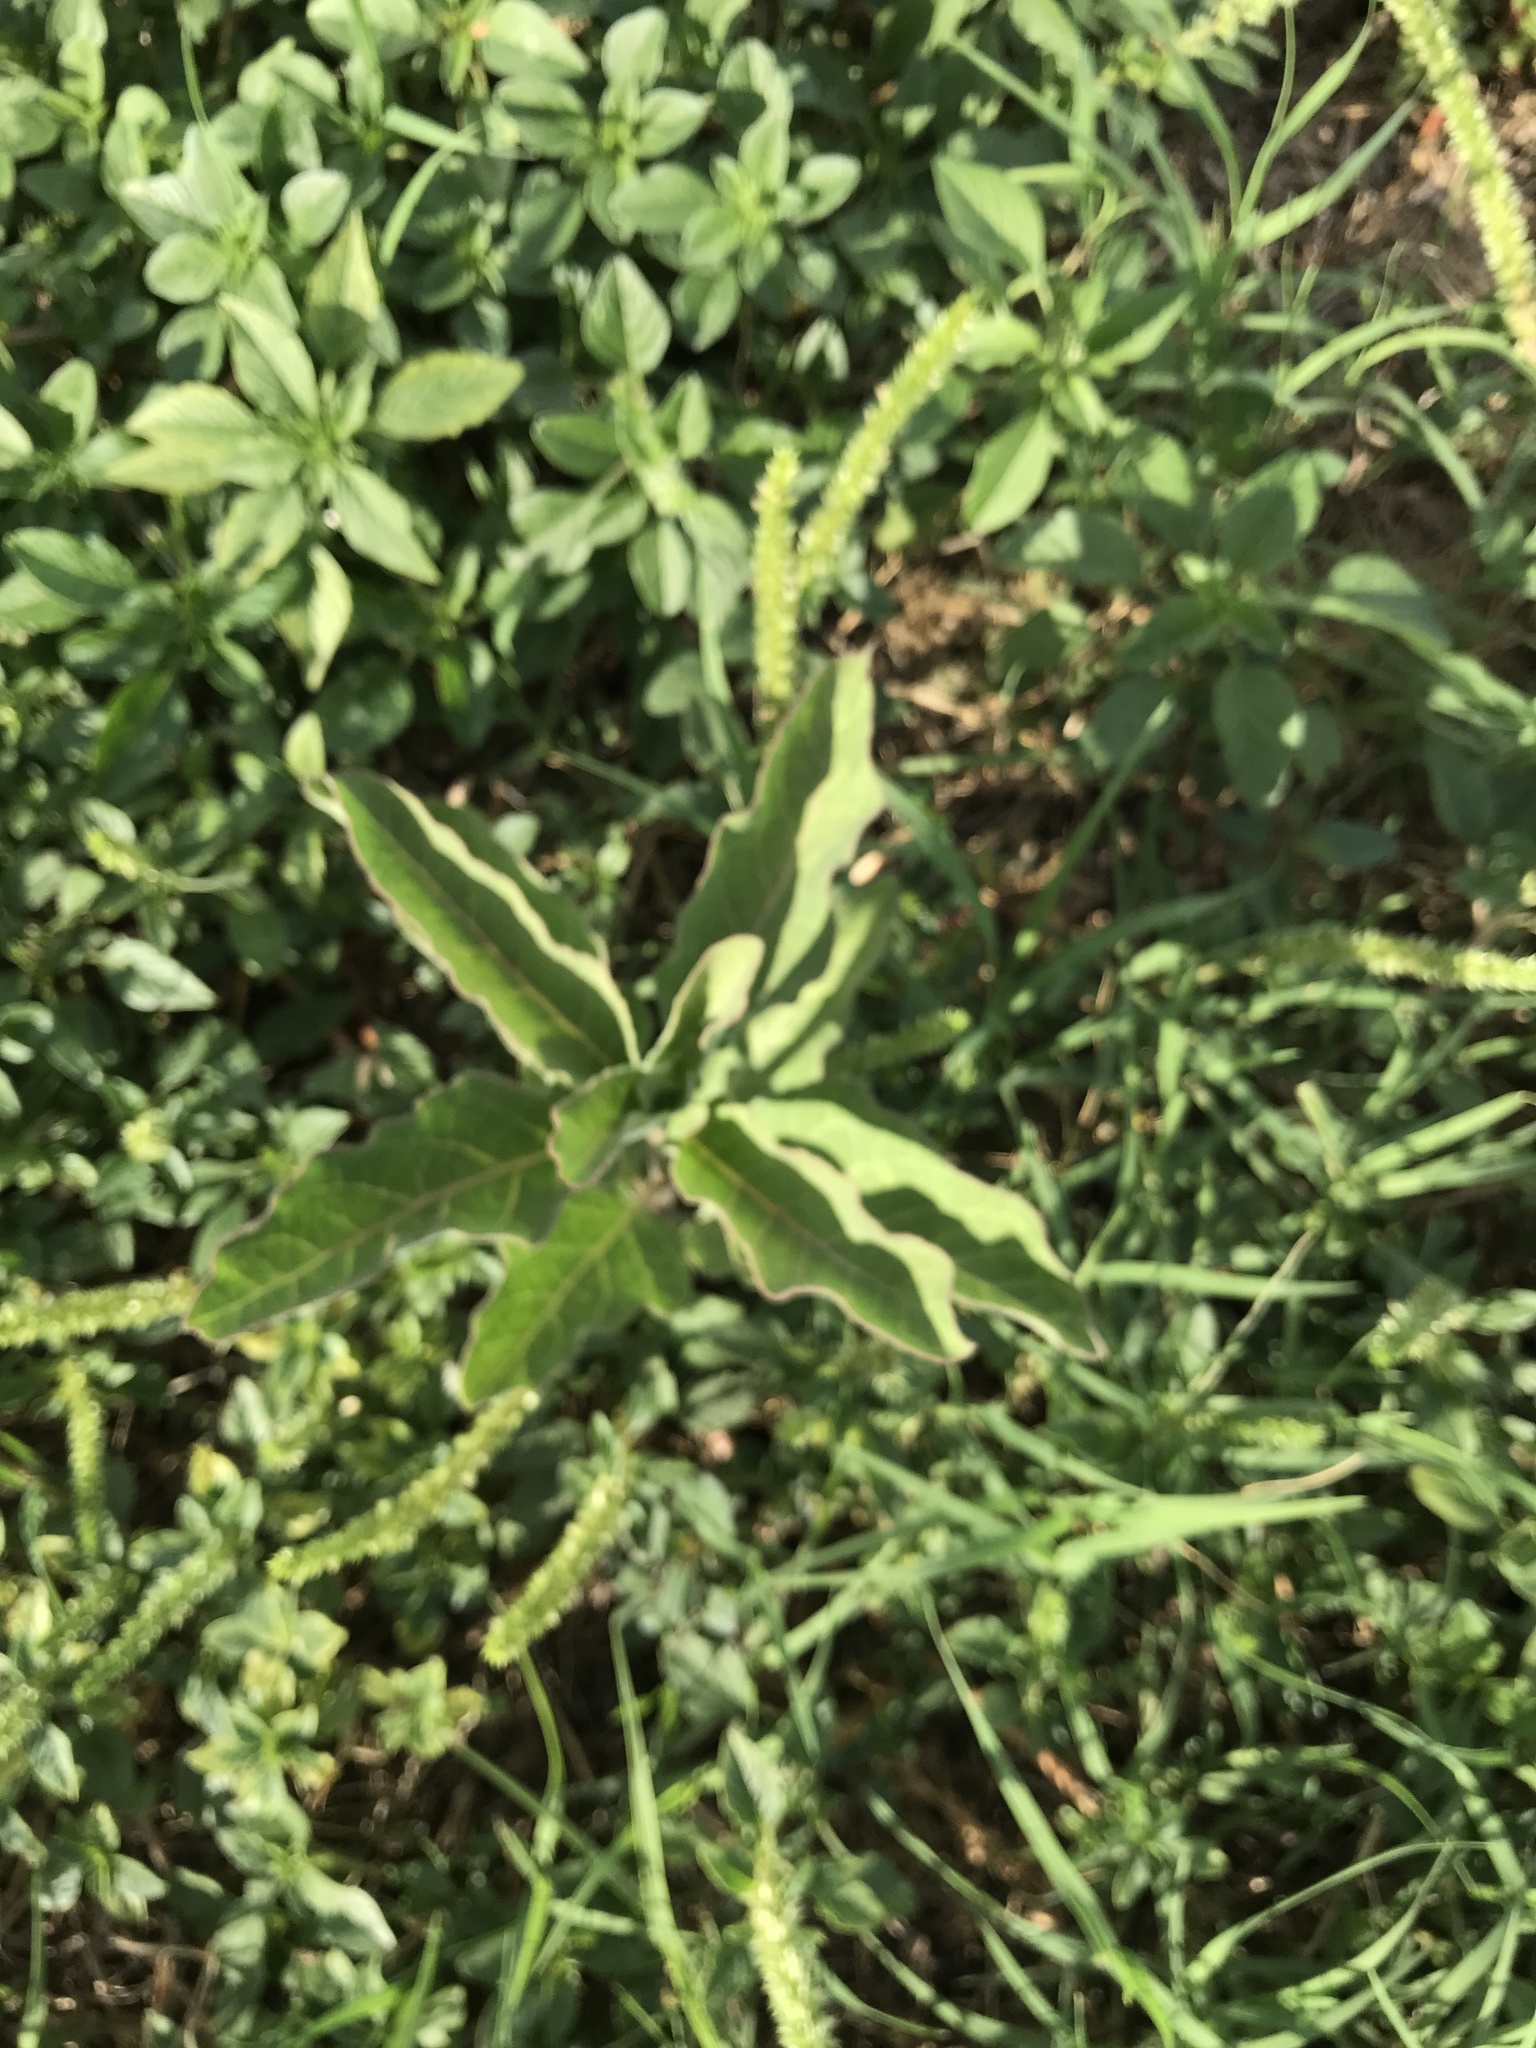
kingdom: Plantae
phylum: Tracheophyta
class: Magnoliopsida
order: Gentianales
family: Apocynaceae
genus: Asclepias
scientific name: Asclepias oenotheroides
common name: Zizotes milkweed
